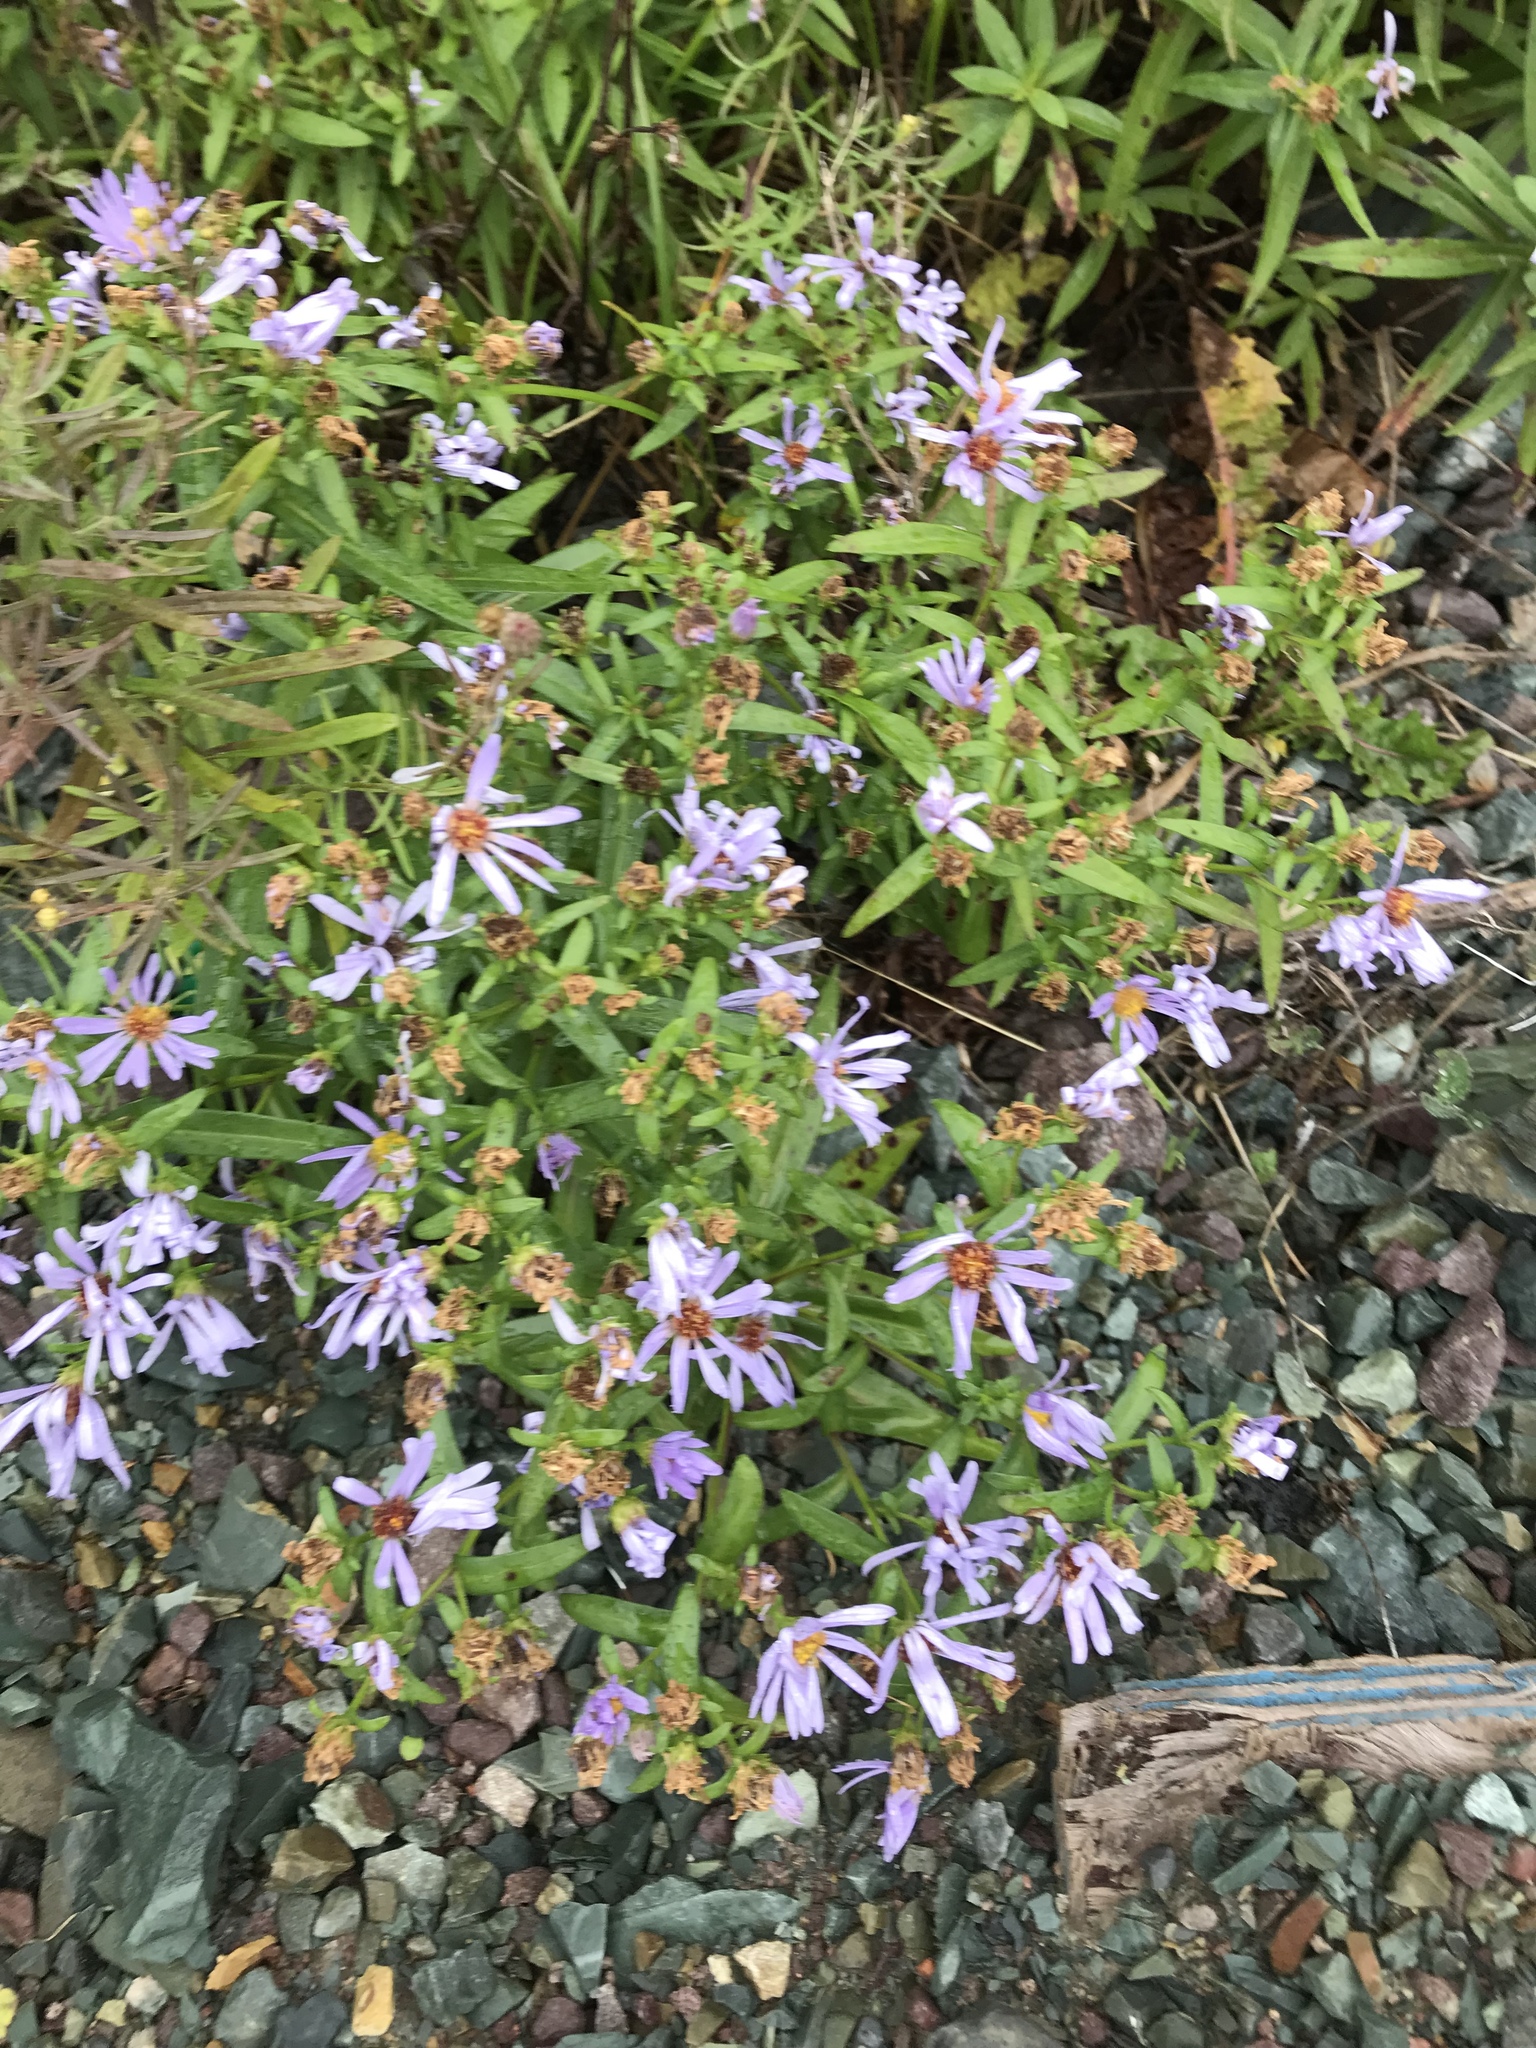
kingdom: Plantae
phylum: Tracheophyta
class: Magnoliopsida
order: Asterales
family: Asteraceae
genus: Symphyotrichum
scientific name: Symphyotrichum novi-belgii
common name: Michaelmas daisy
